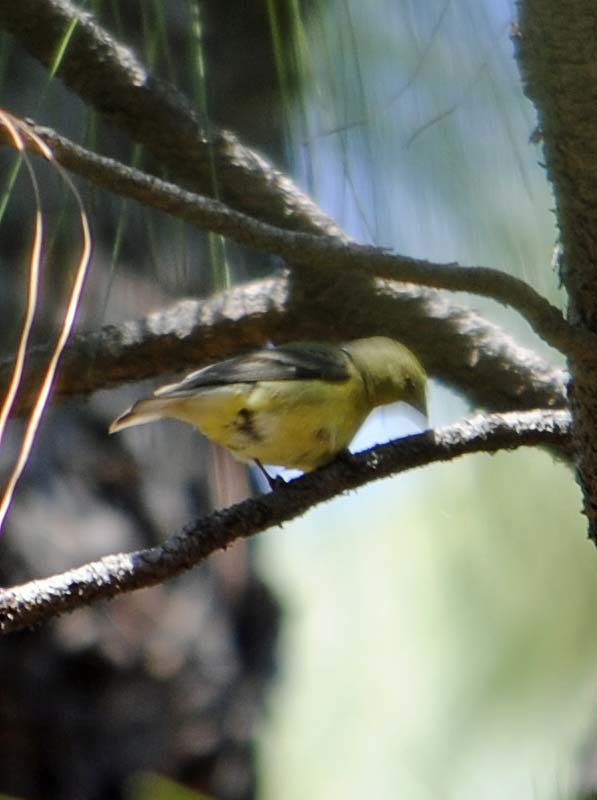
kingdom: Animalia
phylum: Chordata
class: Aves
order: Passeriformes
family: Cardinalidae
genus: Piranga
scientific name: Piranga ludoviciana
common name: Western tanager
